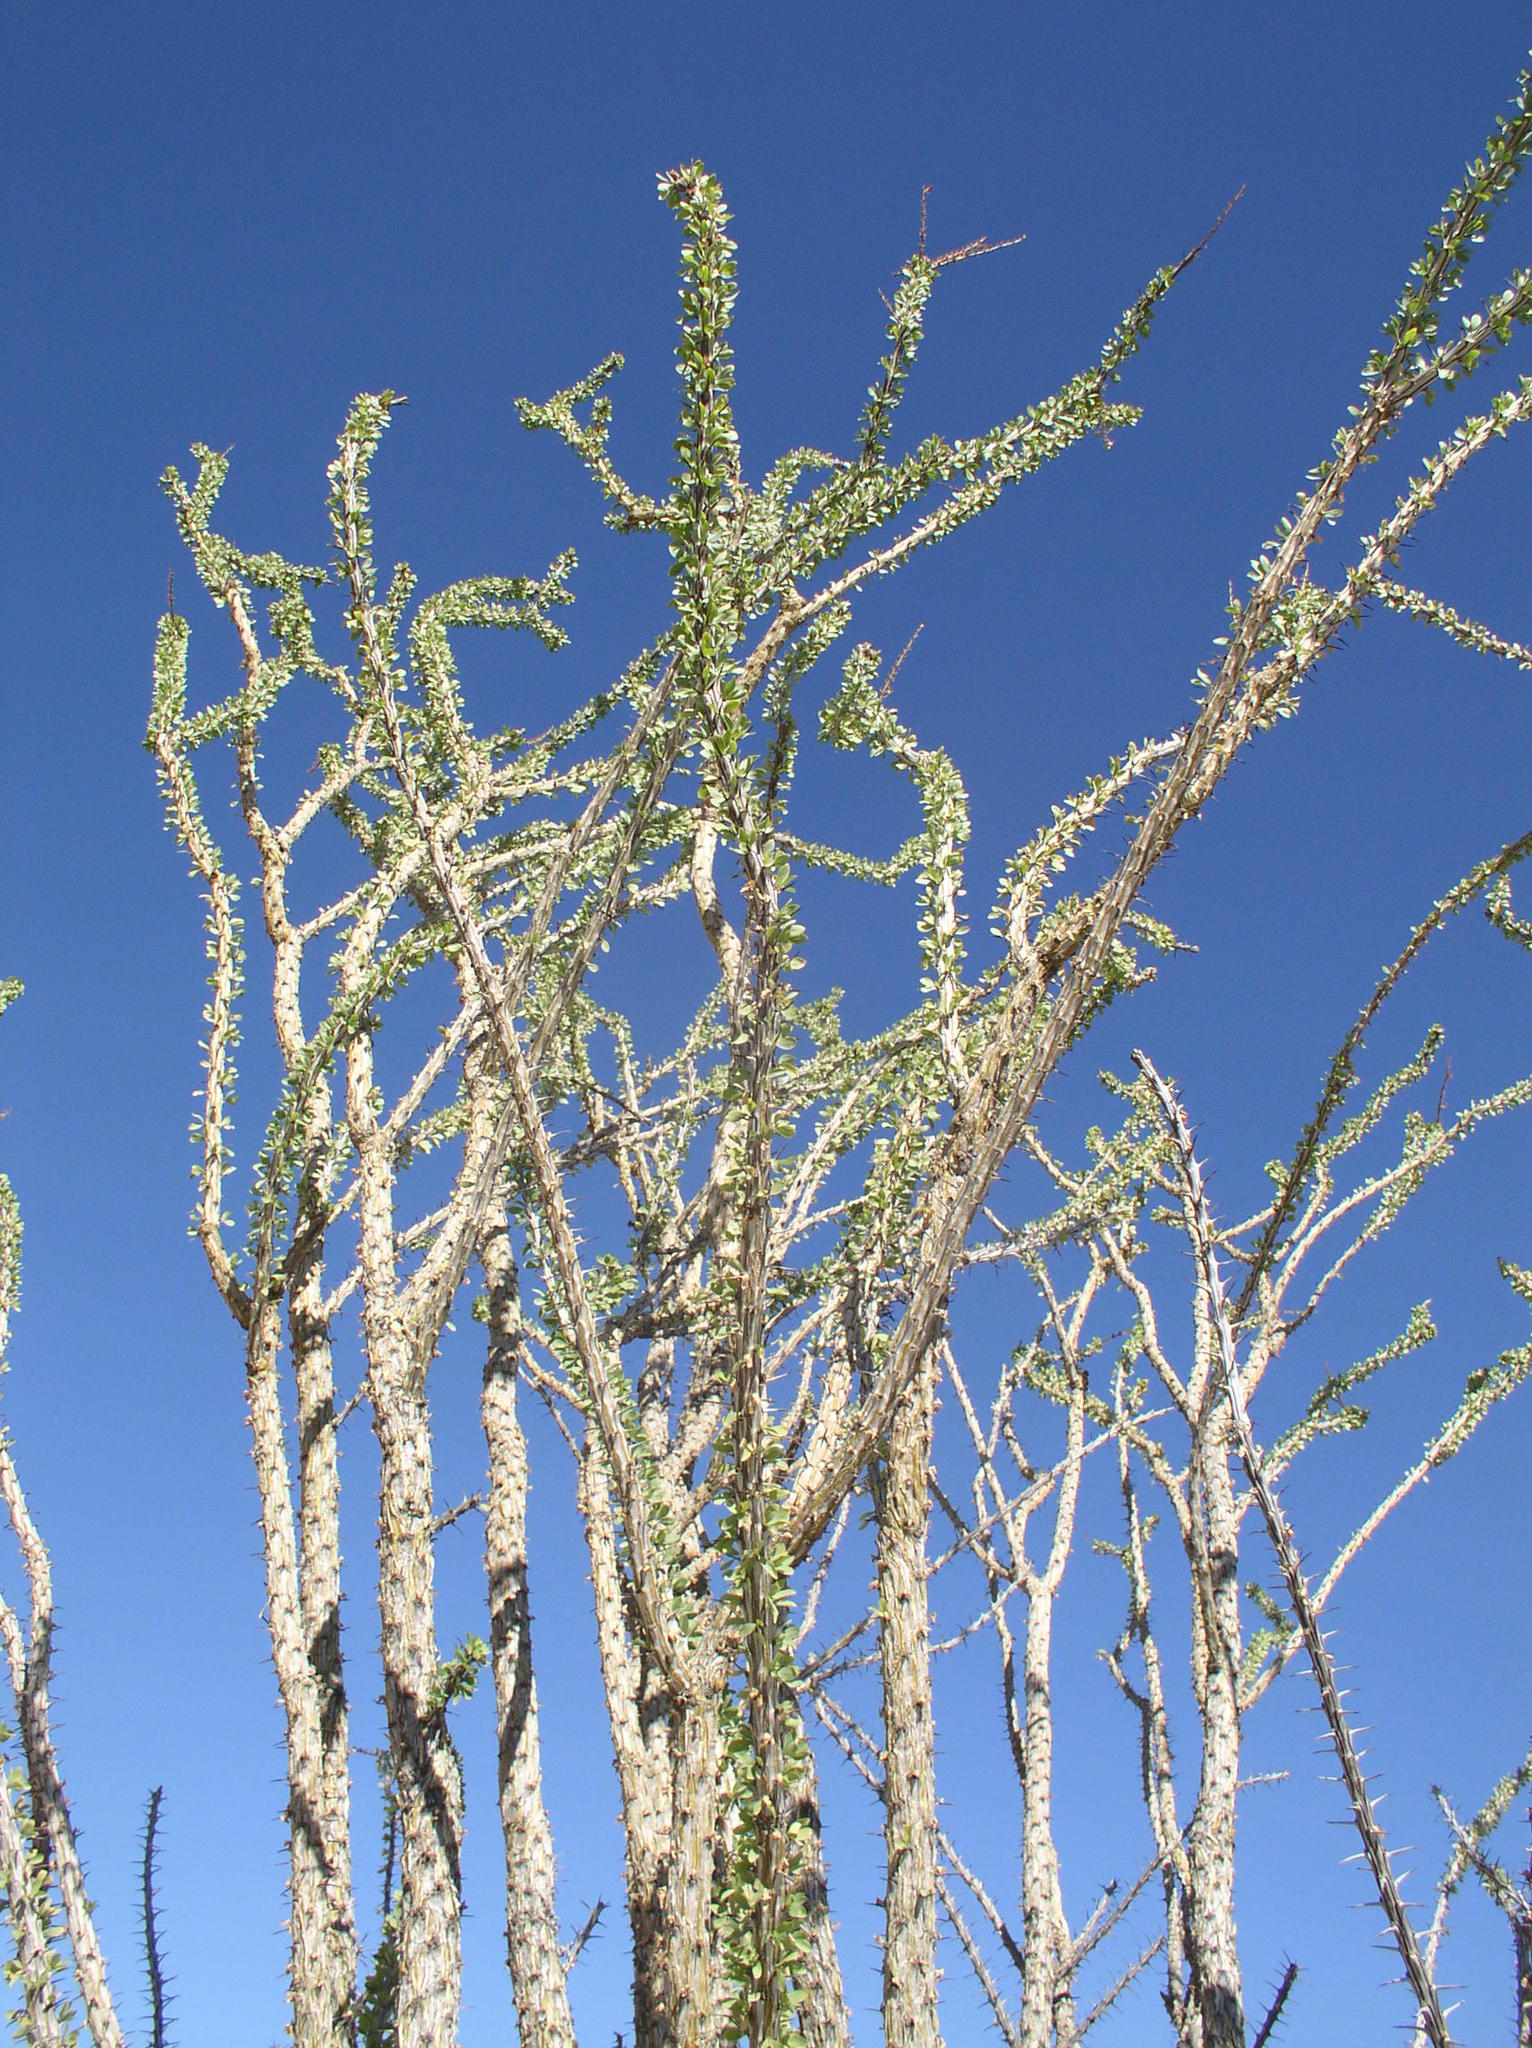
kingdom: Plantae
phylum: Tracheophyta
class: Magnoliopsida
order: Ericales
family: Fouquieriaceae
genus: Fouquieria
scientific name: Fouquieria splendens
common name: Vine-cactus
